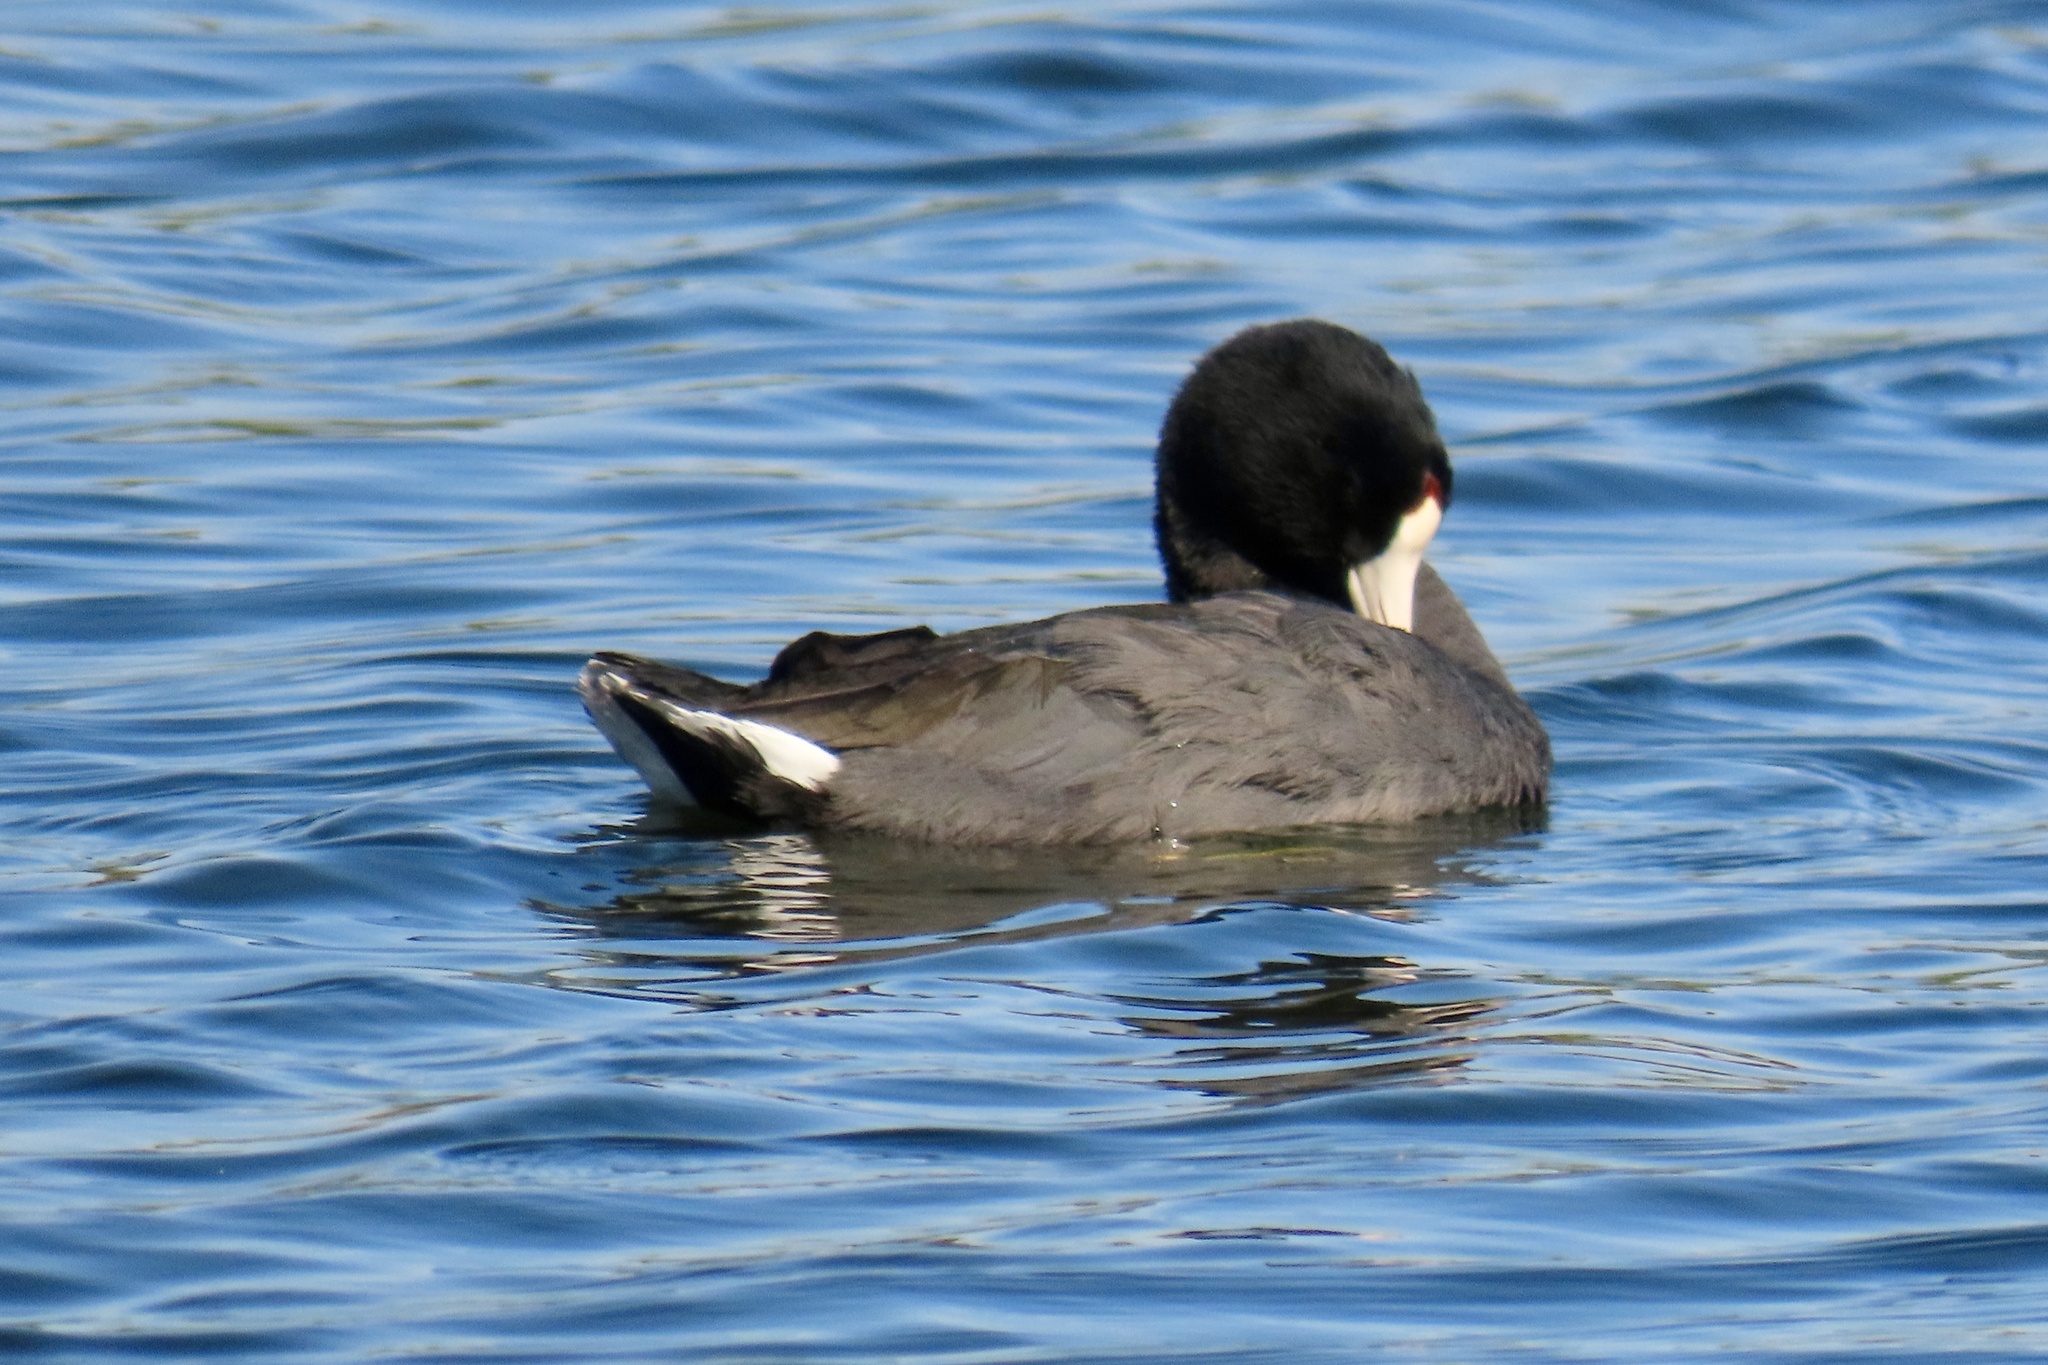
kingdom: Animalia
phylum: Chordata
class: Aves
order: Gruiformes
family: Rallidae
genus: Fulica
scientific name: Fulica americana
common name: American coot
